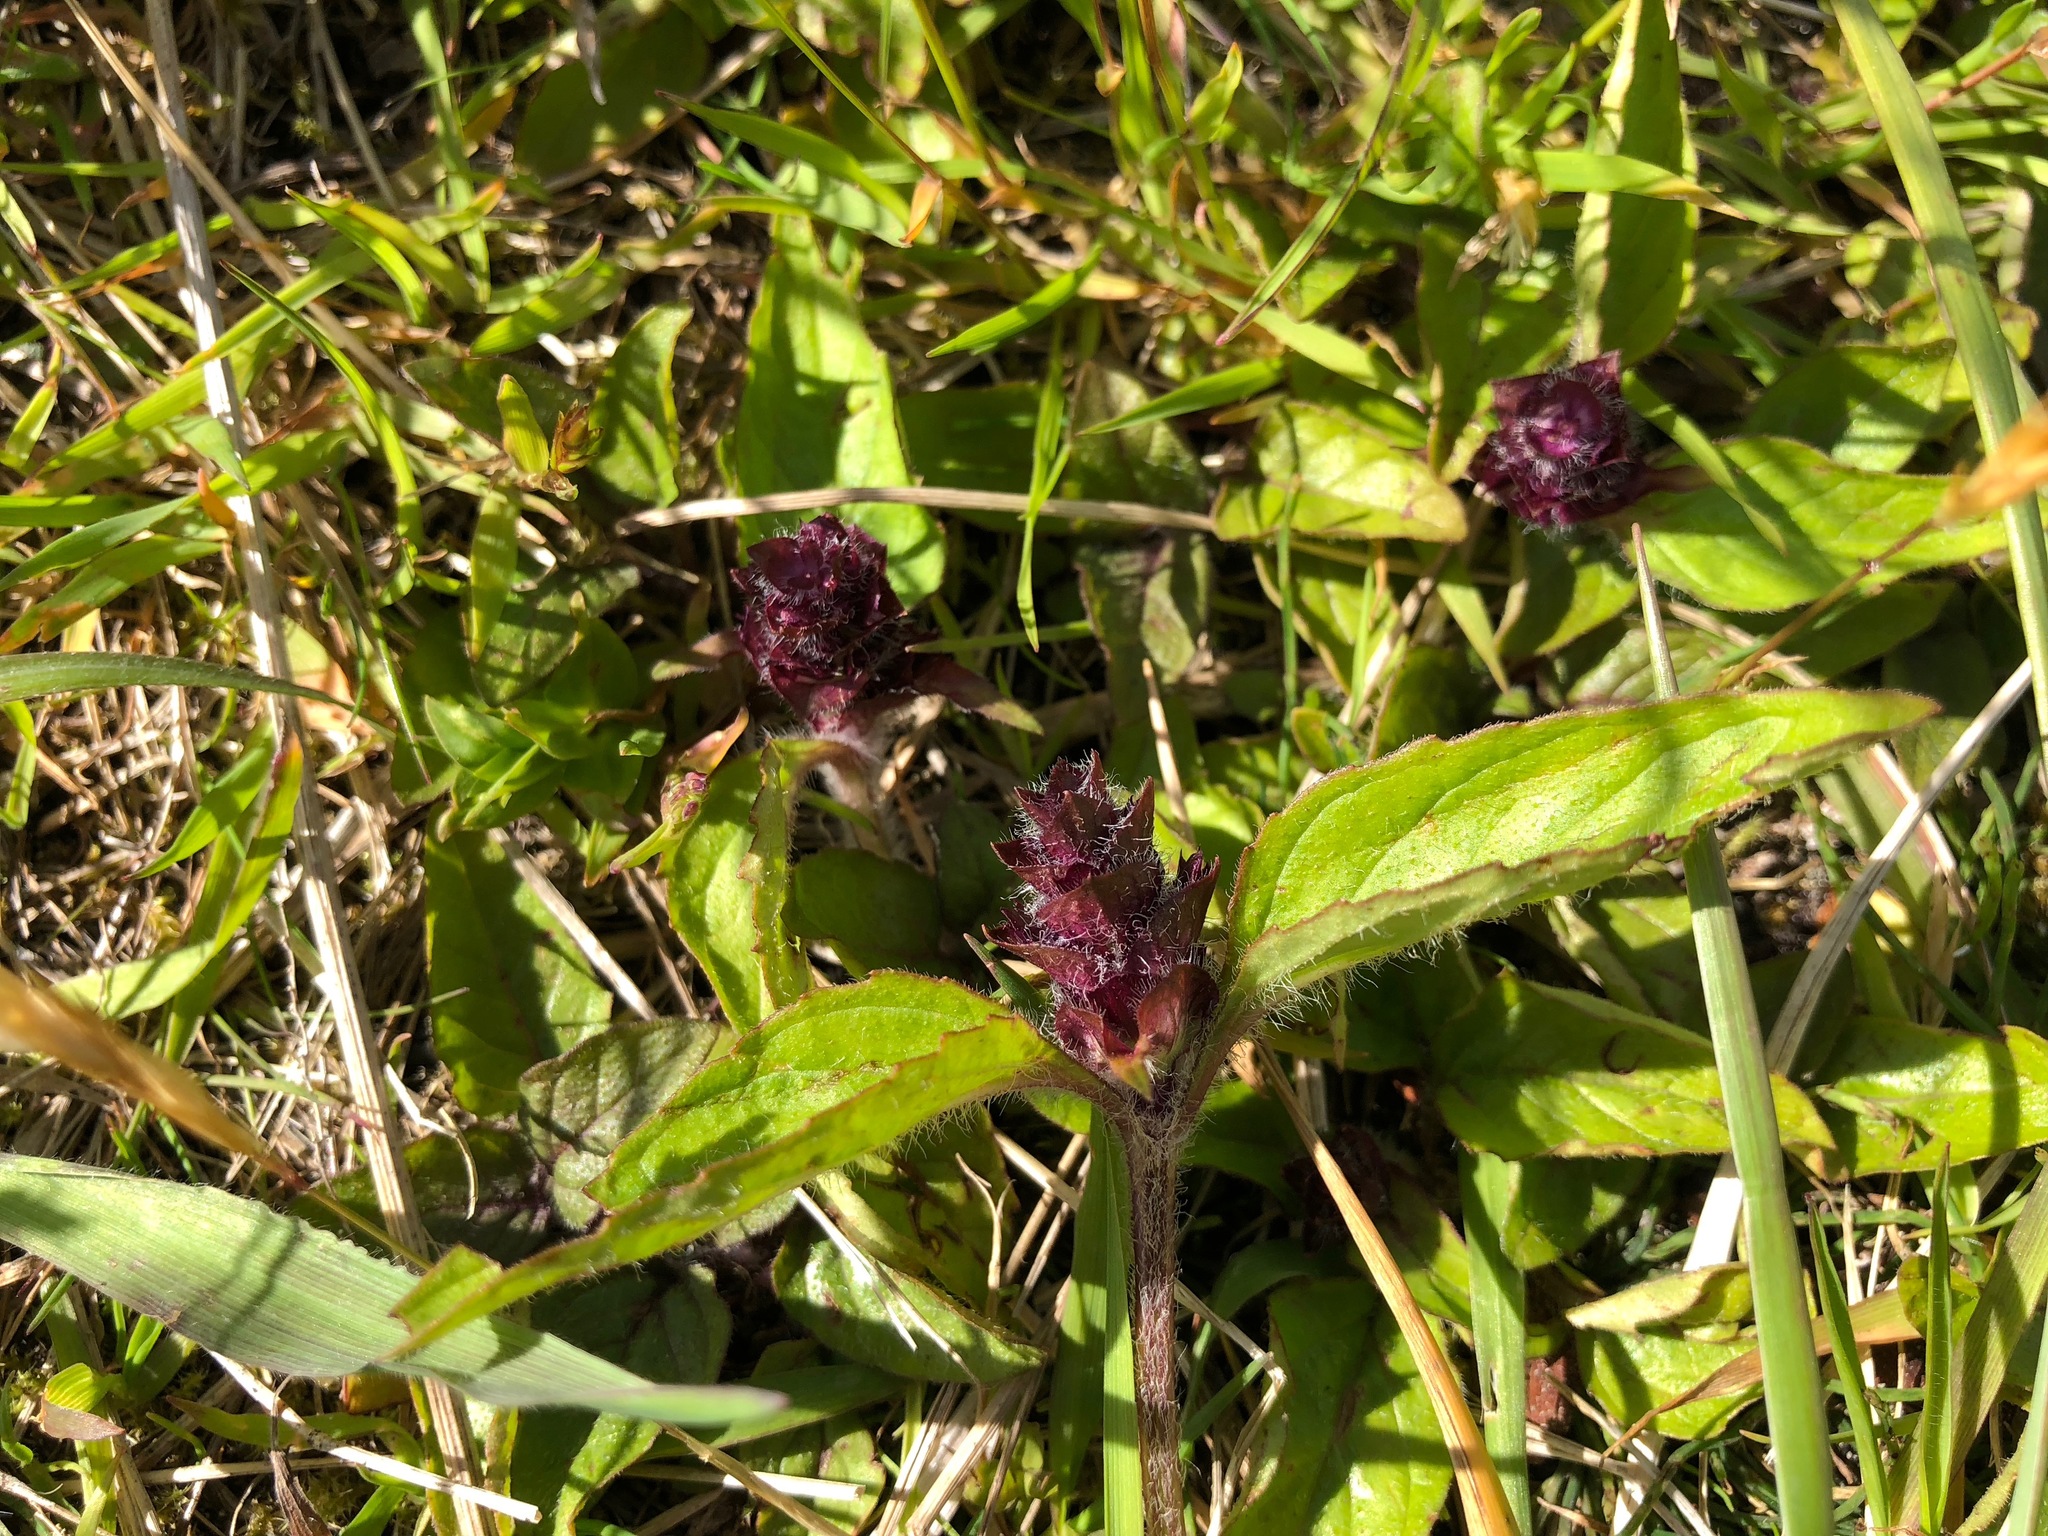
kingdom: Plantae
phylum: Tracheophyta
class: Magnoliopsida
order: Lamiales
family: Lamiaceae
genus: Prunella
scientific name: Prunella vulgaris
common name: Heal-all
